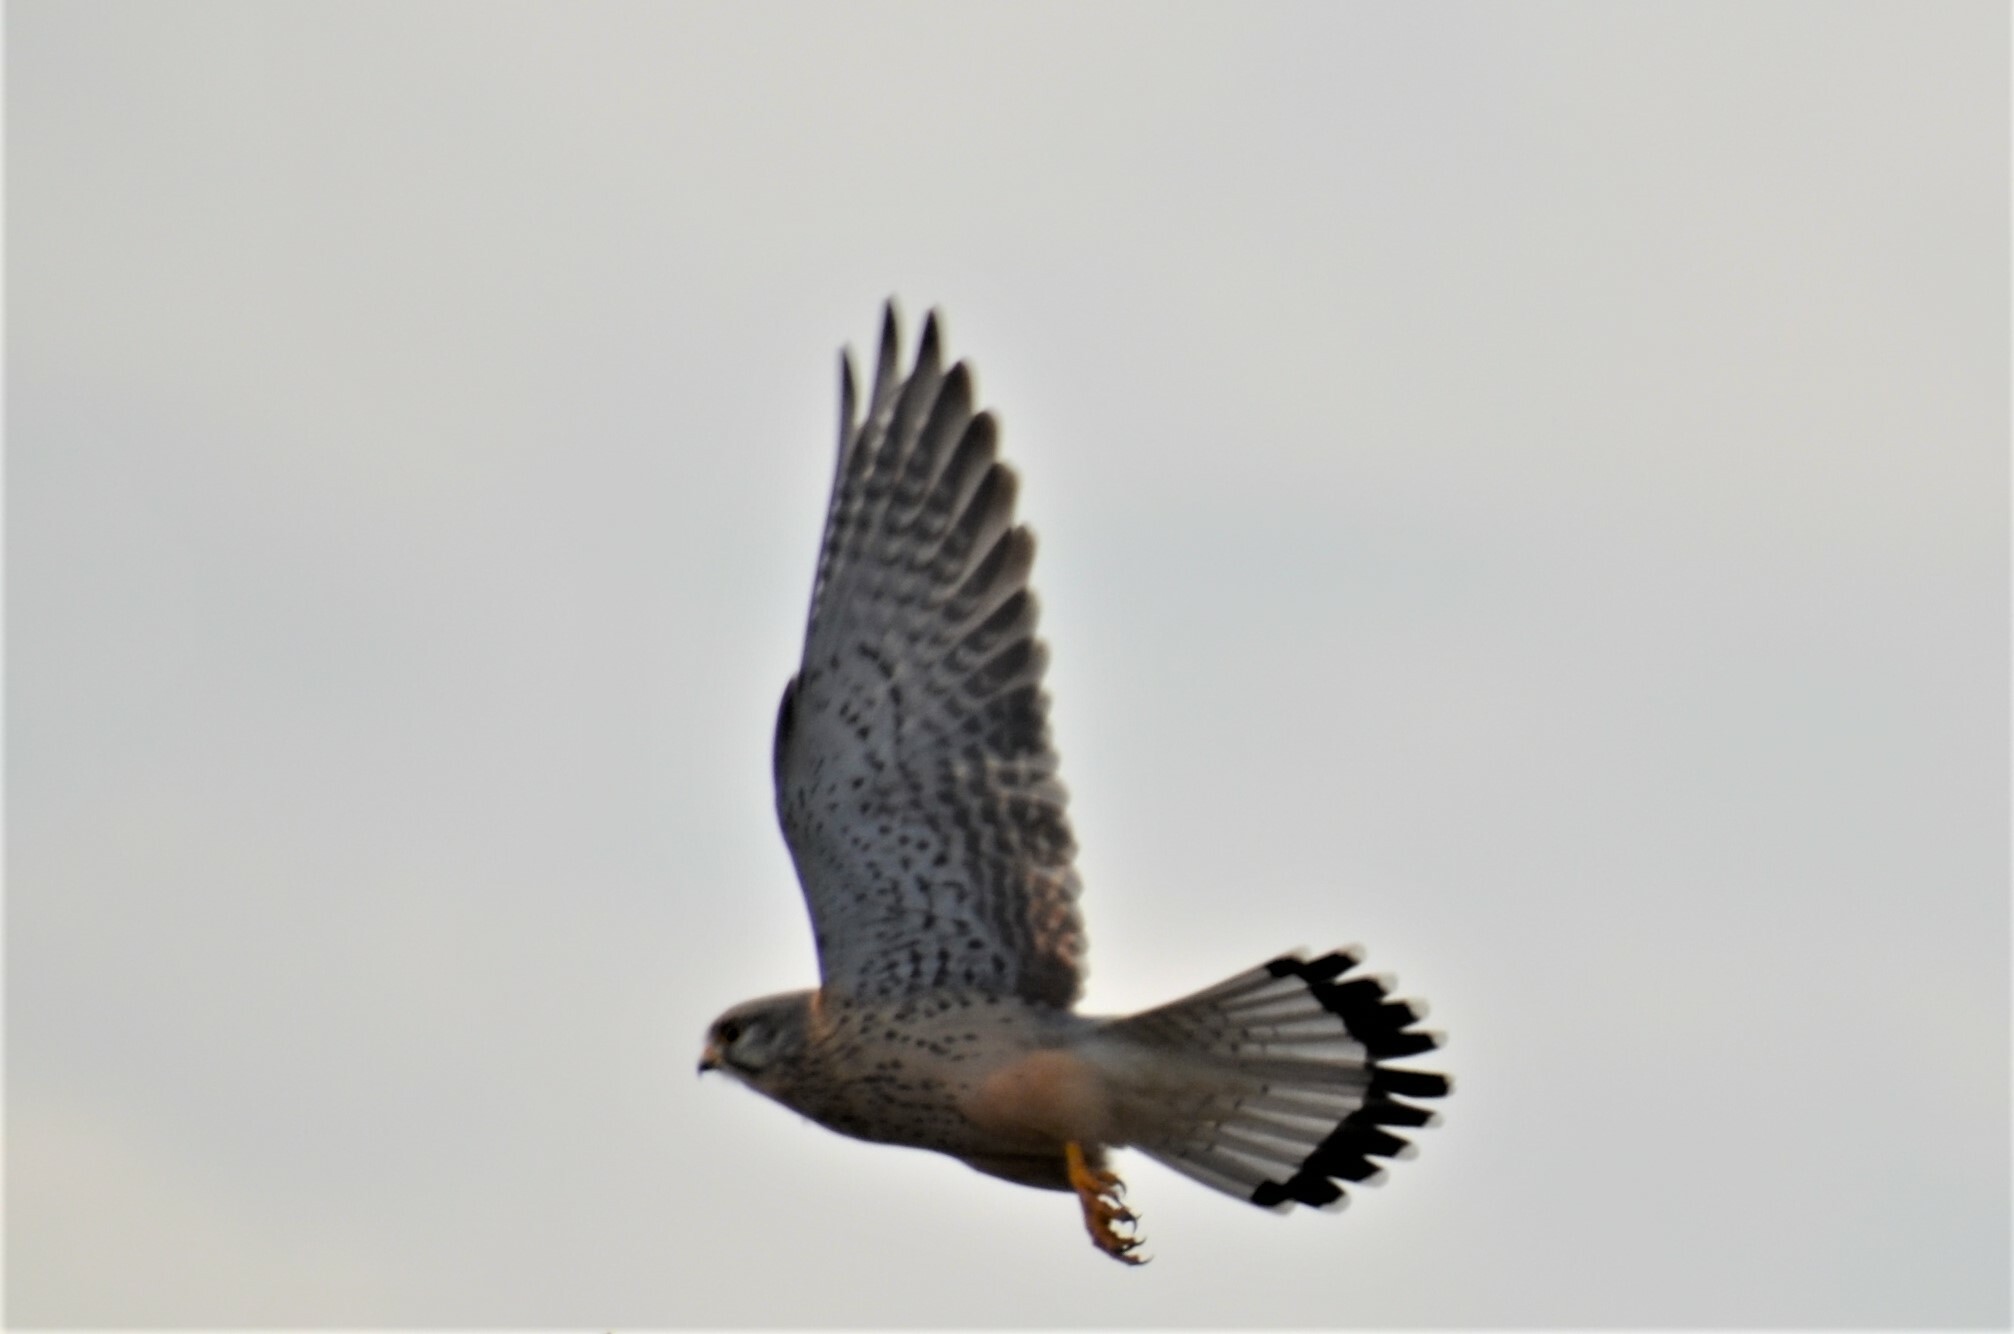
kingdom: Animalia
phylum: Chordata
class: Aves
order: Falconiformes
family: Falconidae
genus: Falco
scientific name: Falco tinnunculus
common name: Common kestrel
